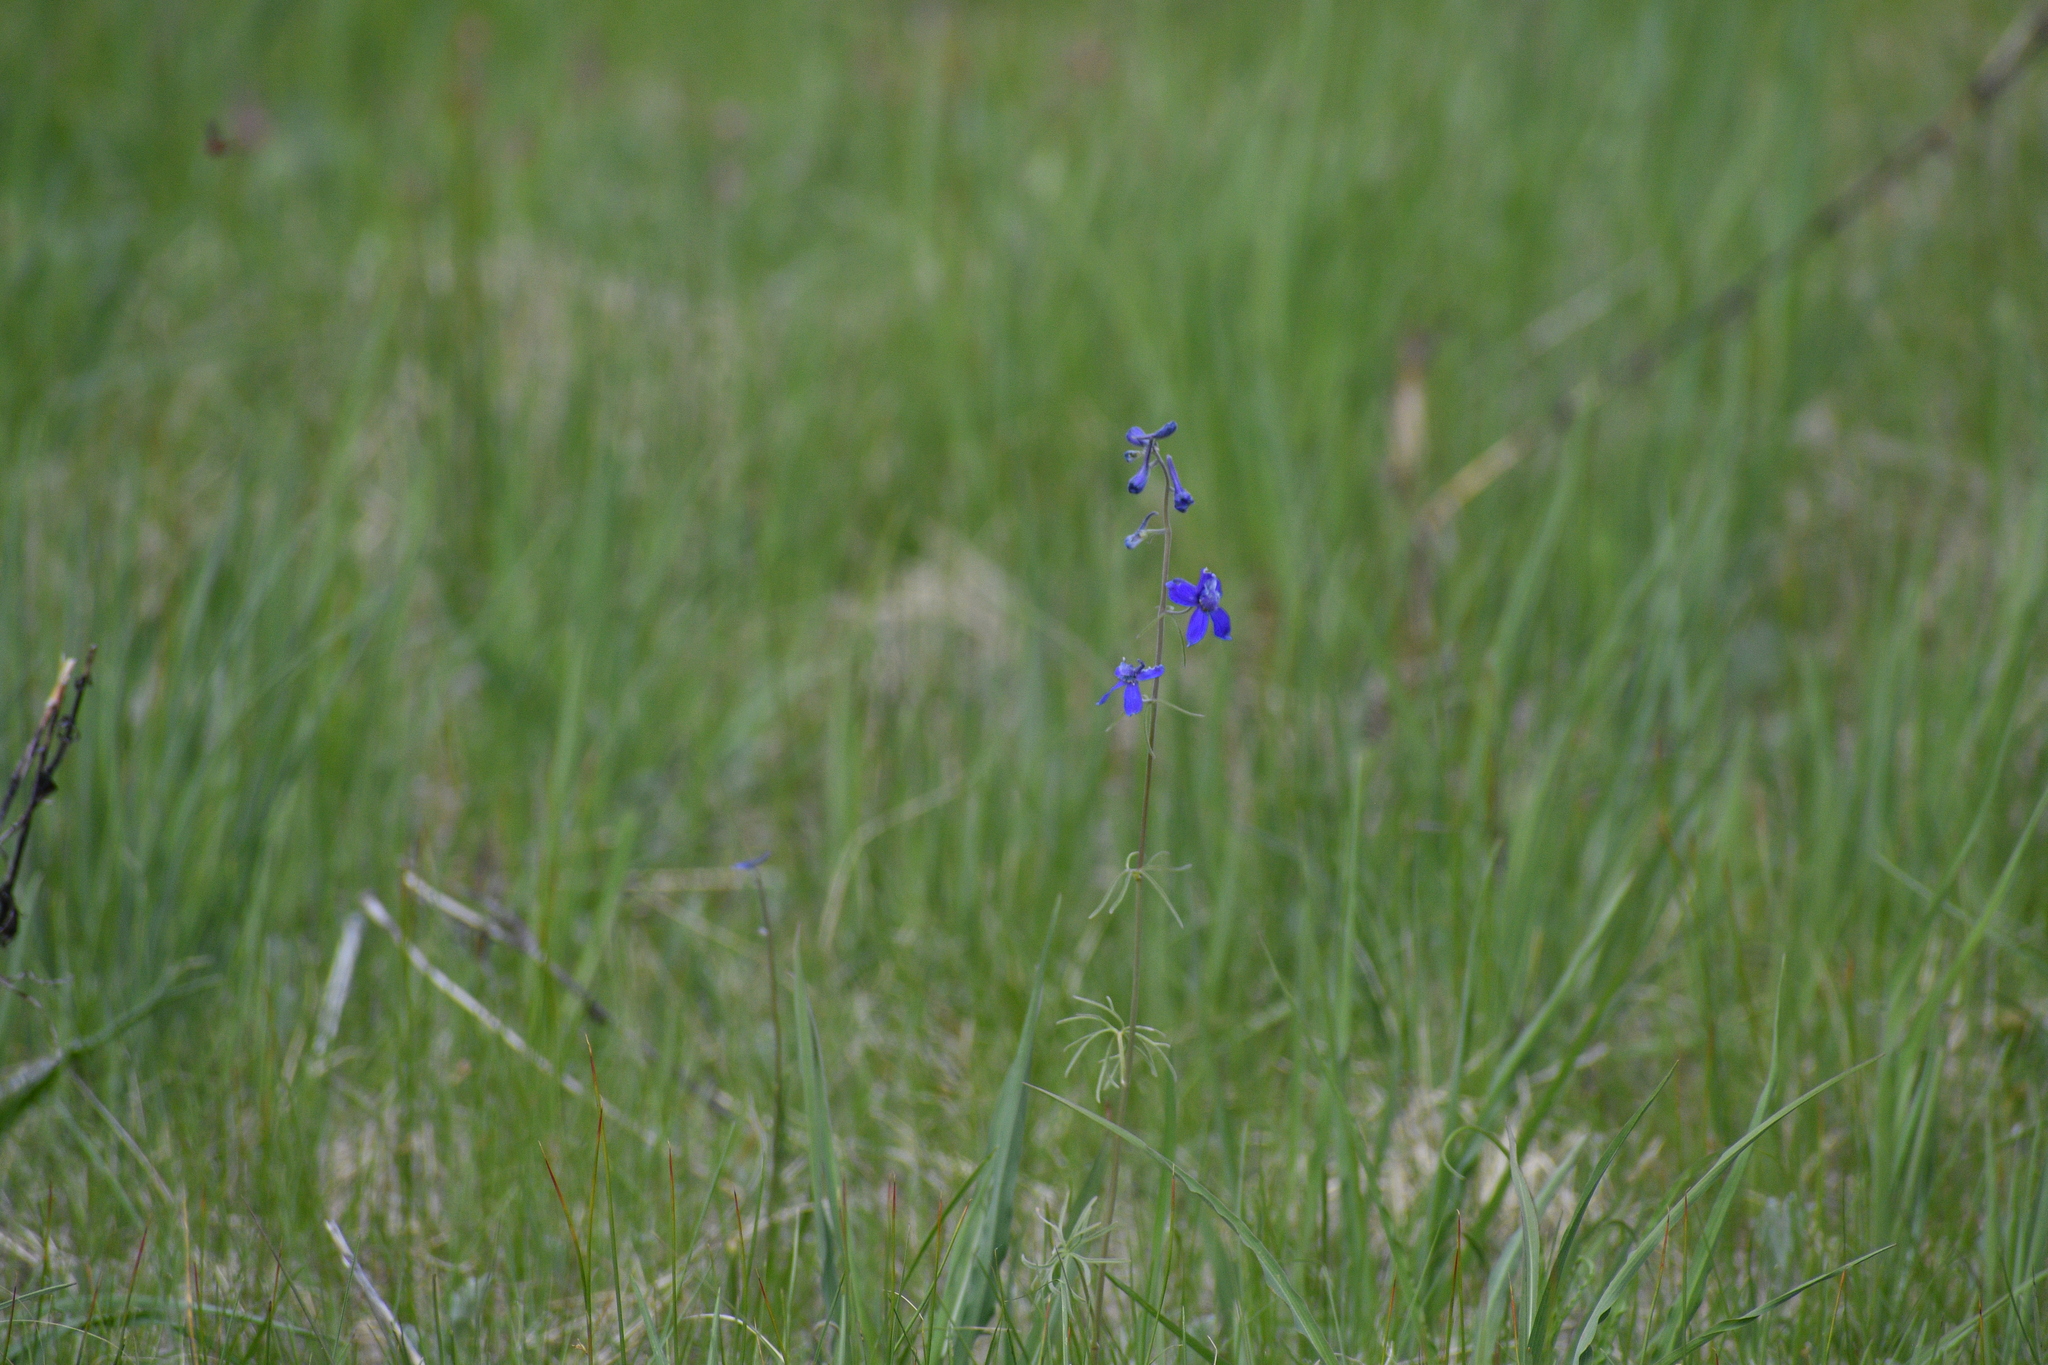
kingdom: Plantae
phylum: Tracheophyta
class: Magnoliopsida
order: Ranunculales
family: Ranunculaceae
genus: Delphinium
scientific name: Delphinium nuttallianum
